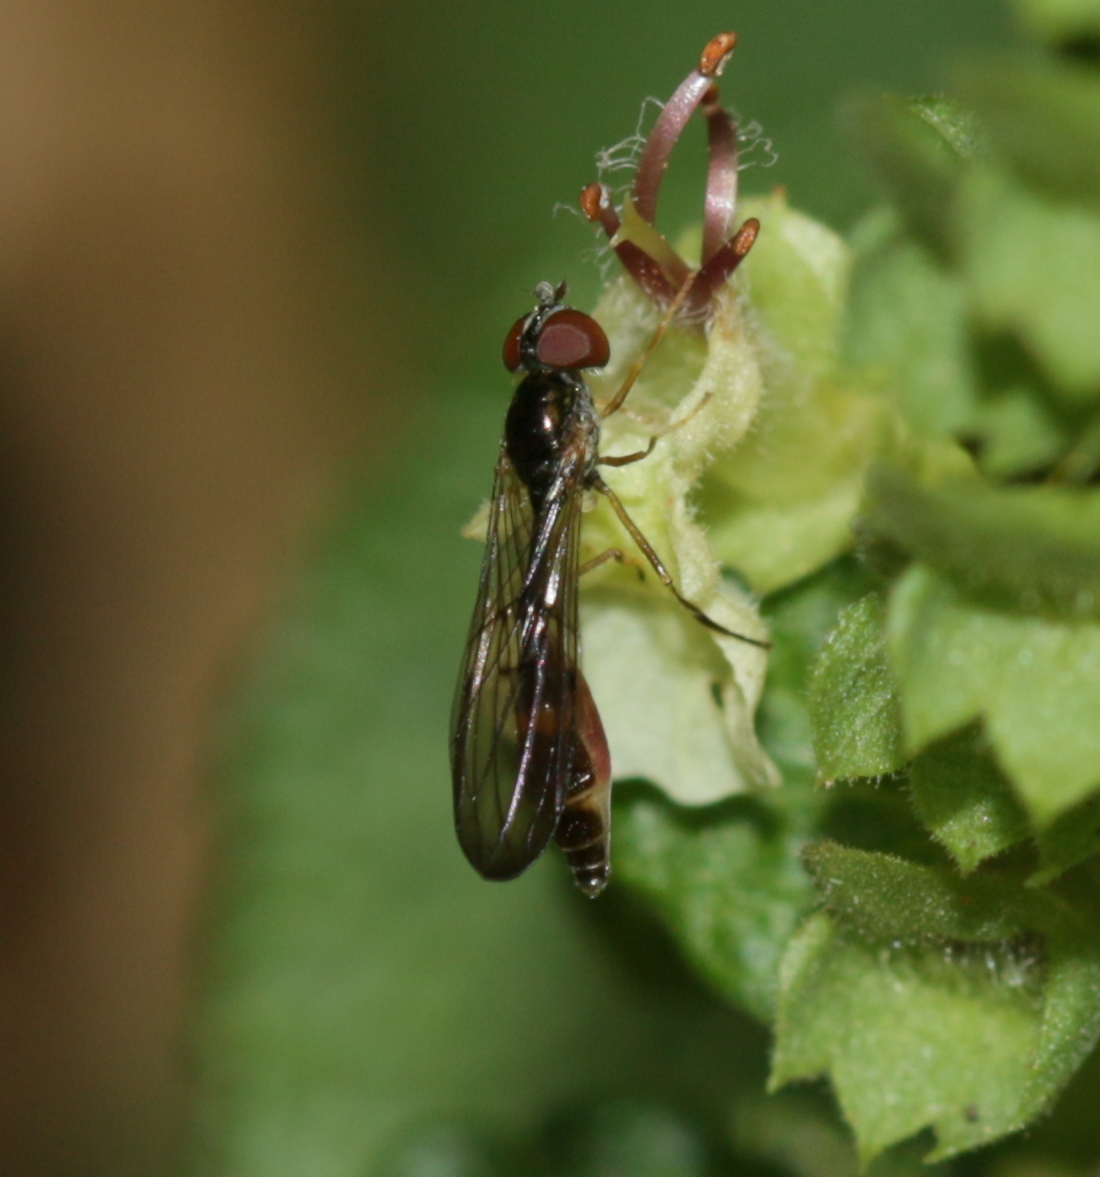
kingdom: Animalia
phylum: Arthropoda
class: Insecta
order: Diptera
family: Syrphidae
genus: Baccha
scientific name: Baccha elongata
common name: Common dainty
